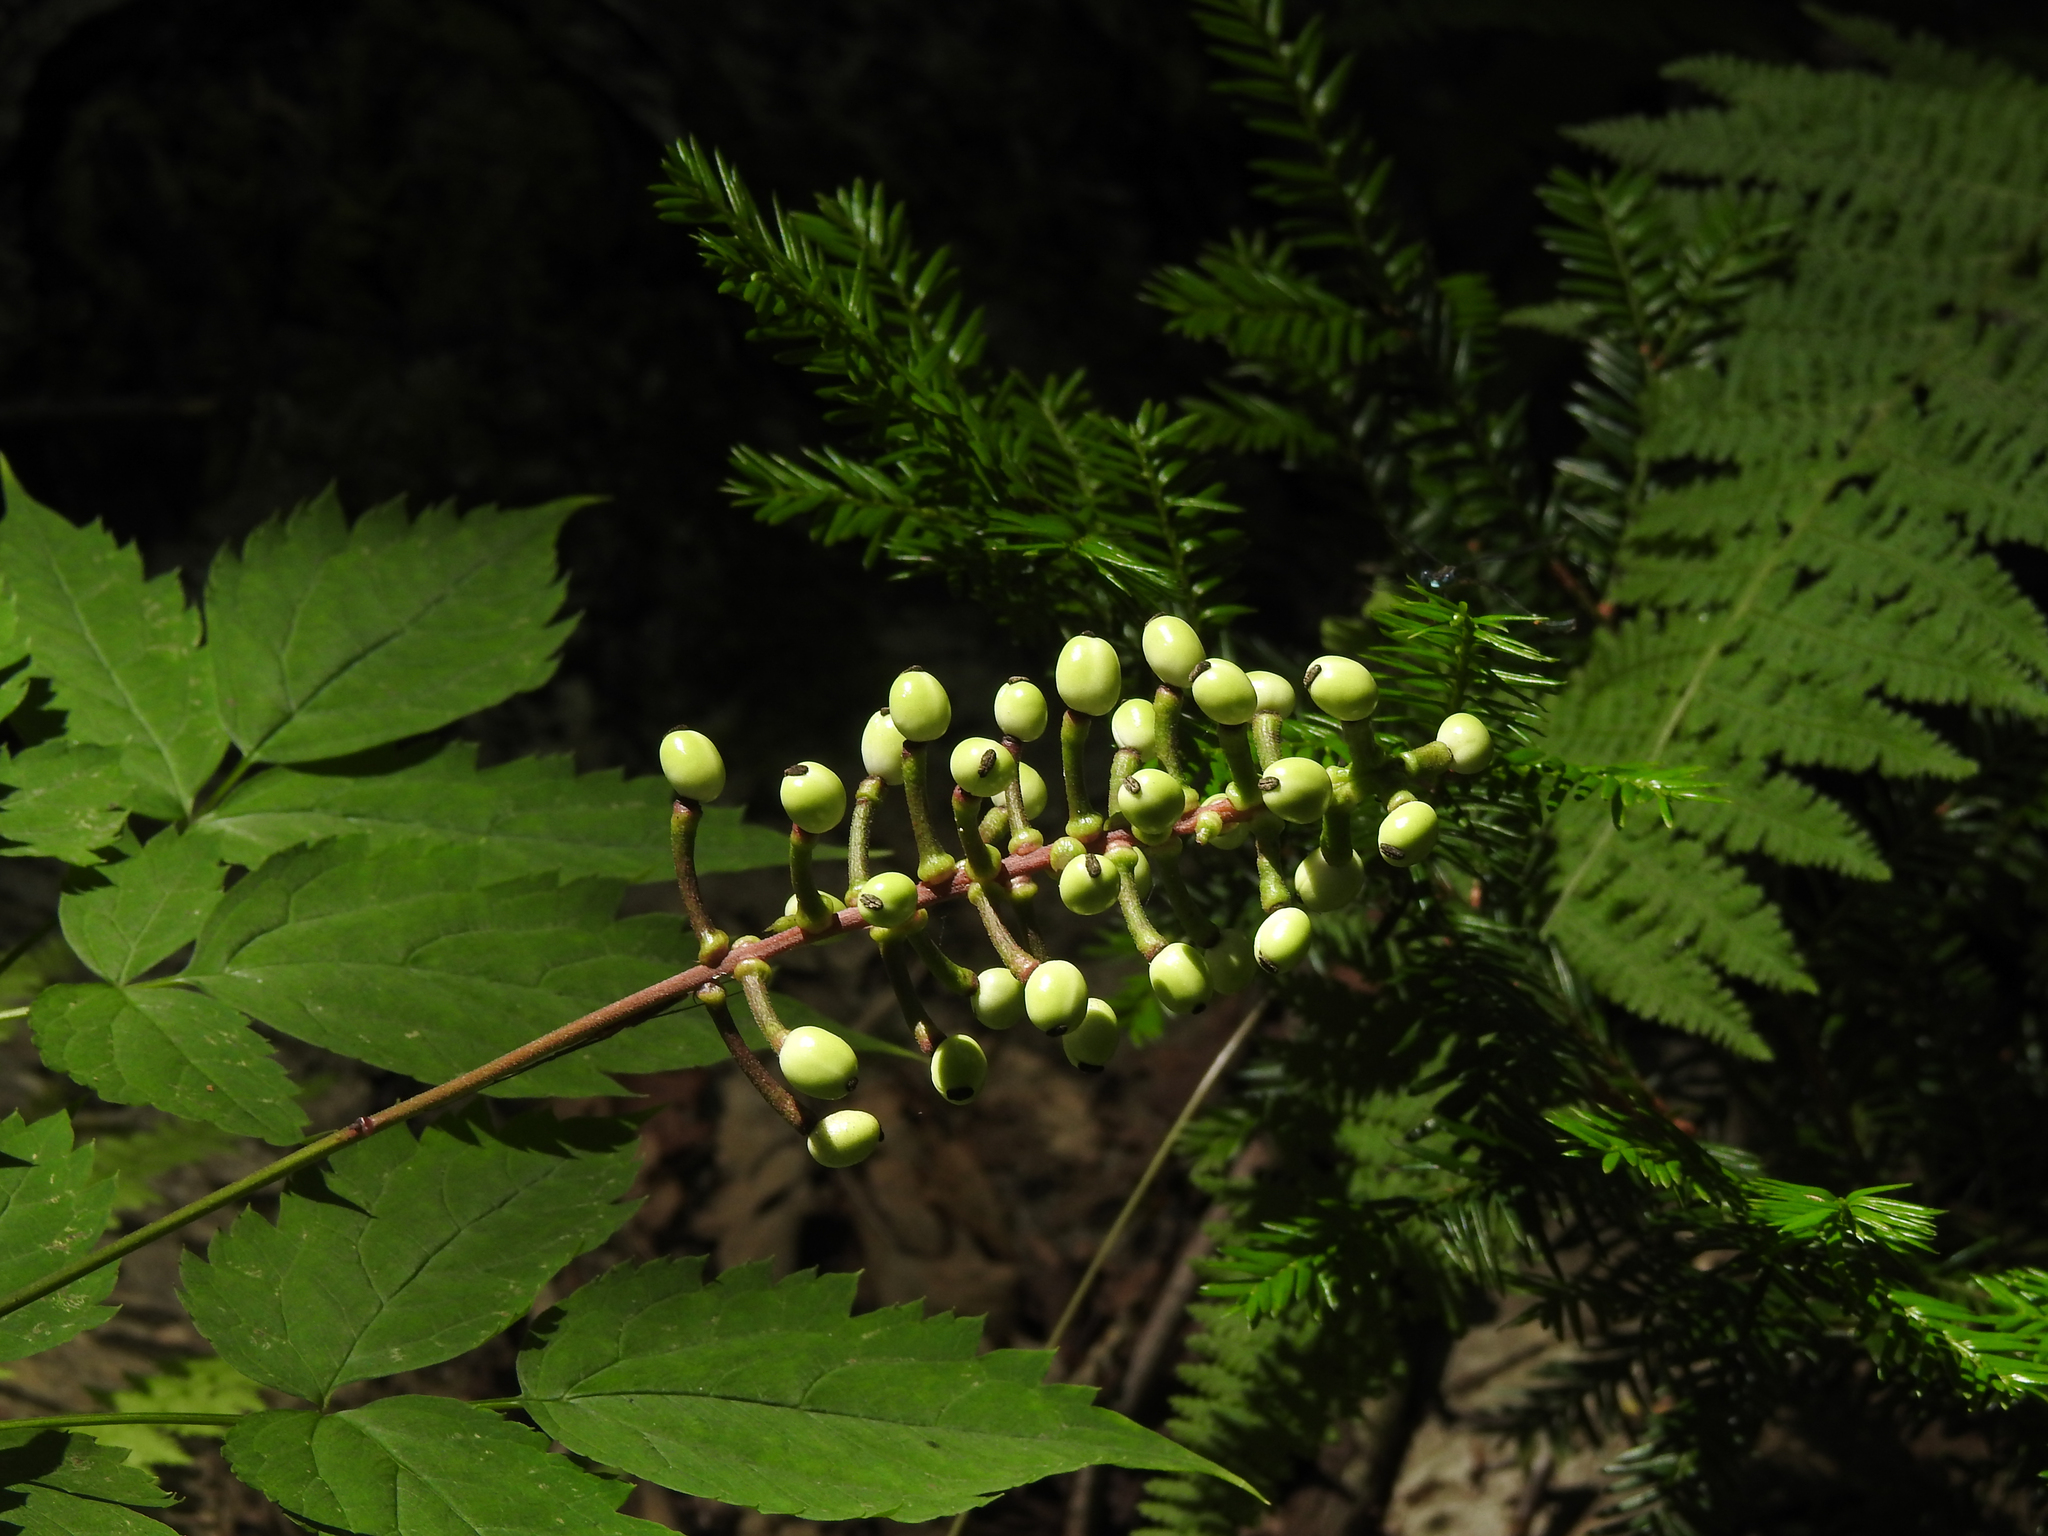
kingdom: Plantae
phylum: Tracheophyta
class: Magnoliopsida
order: Ranunculales
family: Ranunculaceae
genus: Actaea
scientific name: Actaea pachypoda
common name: Doll's-eyes
